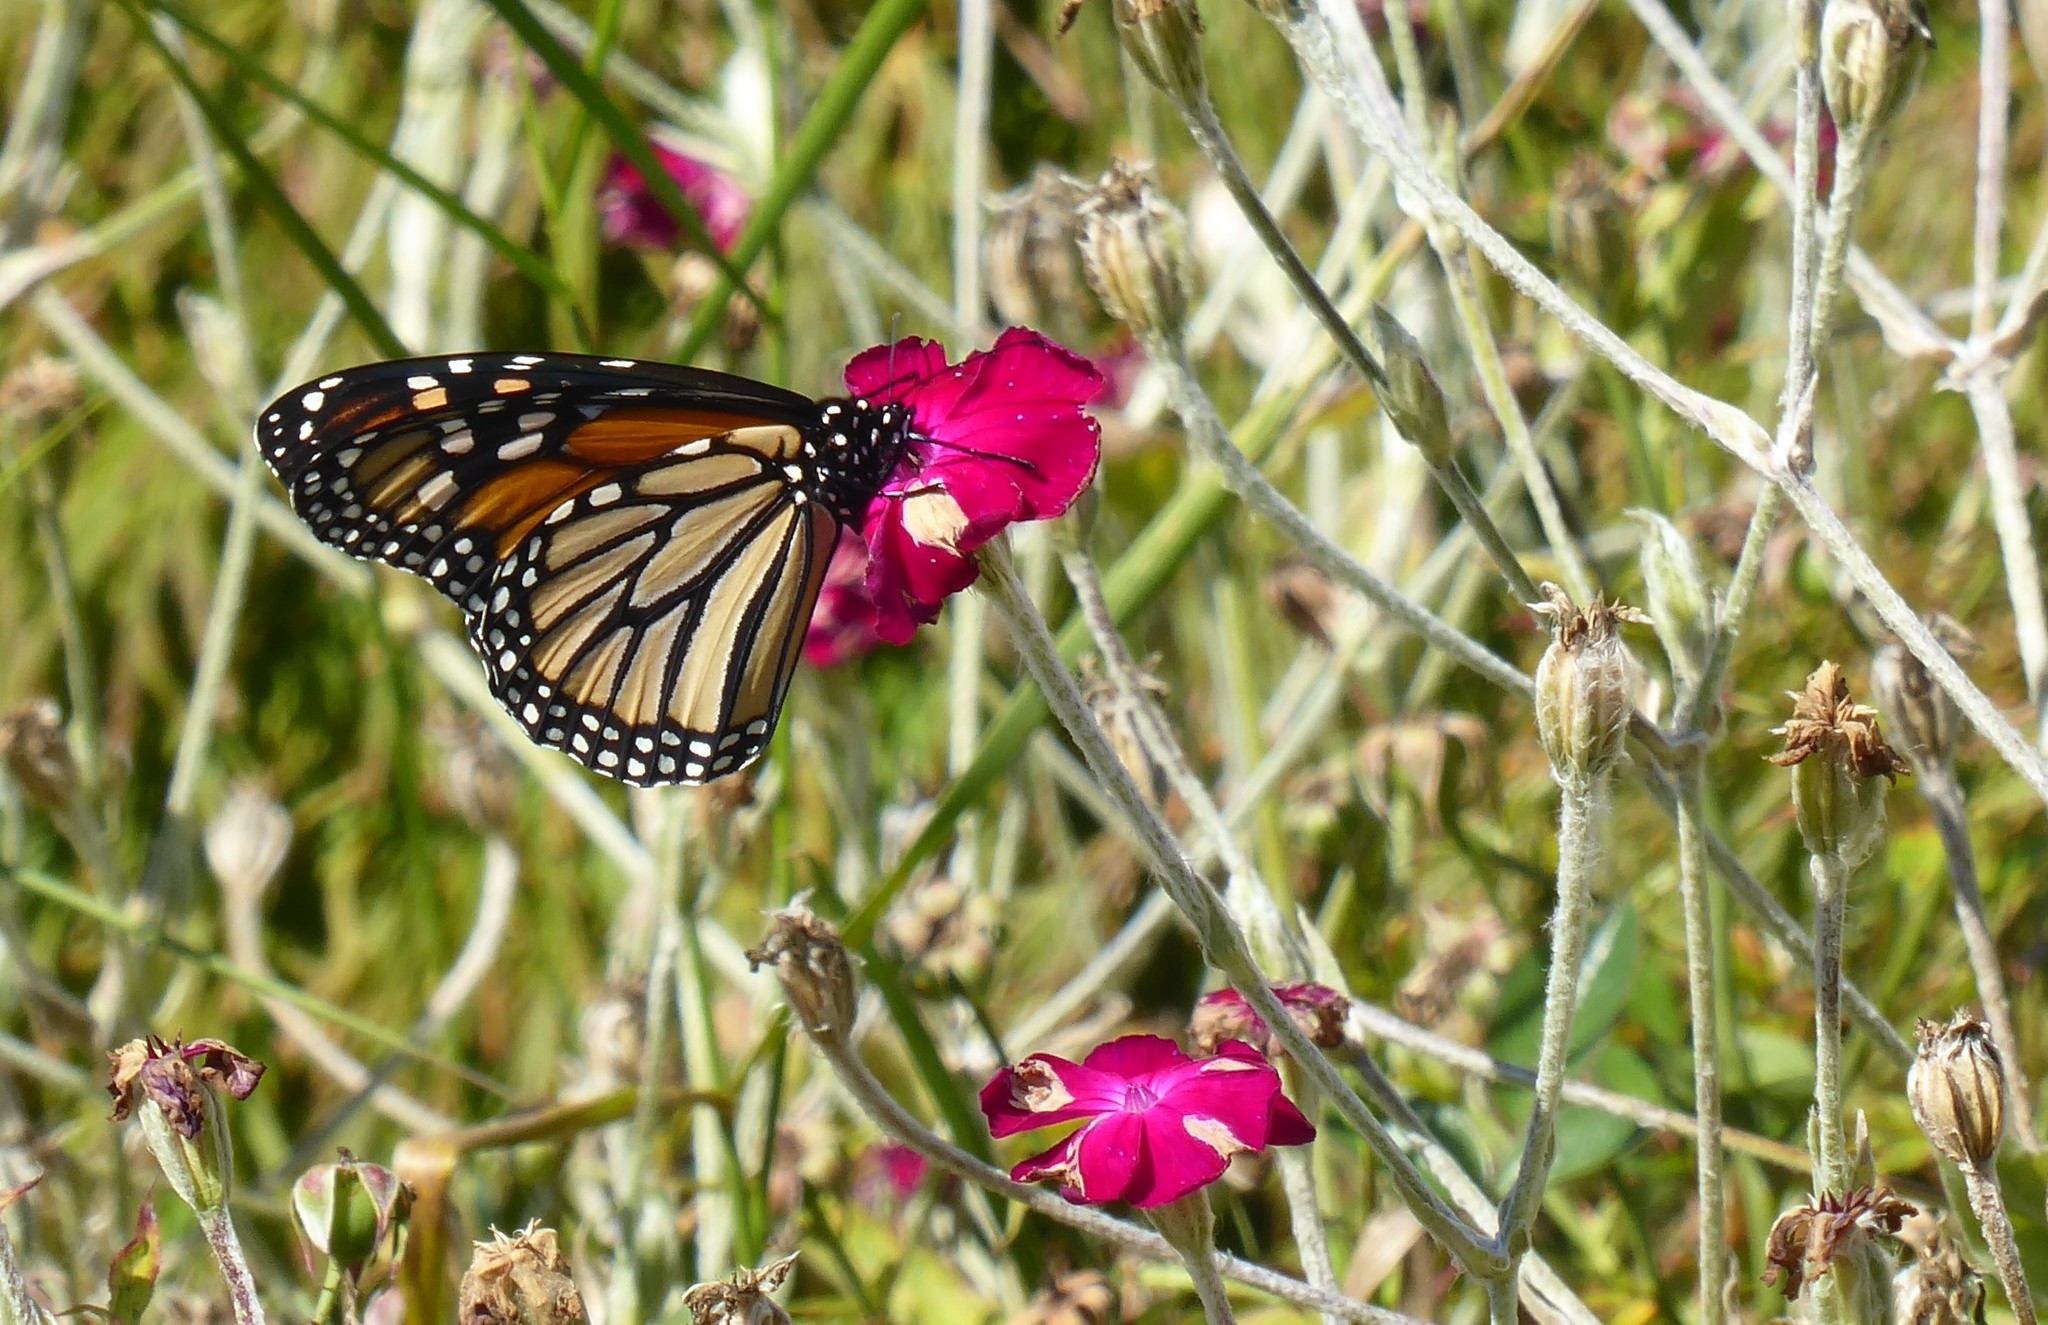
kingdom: Animalia
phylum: Arthropoda
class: Insecta
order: Lepidoptera
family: Nymphalidae
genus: Danaus
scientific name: Danaus plexippus
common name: Monarch
